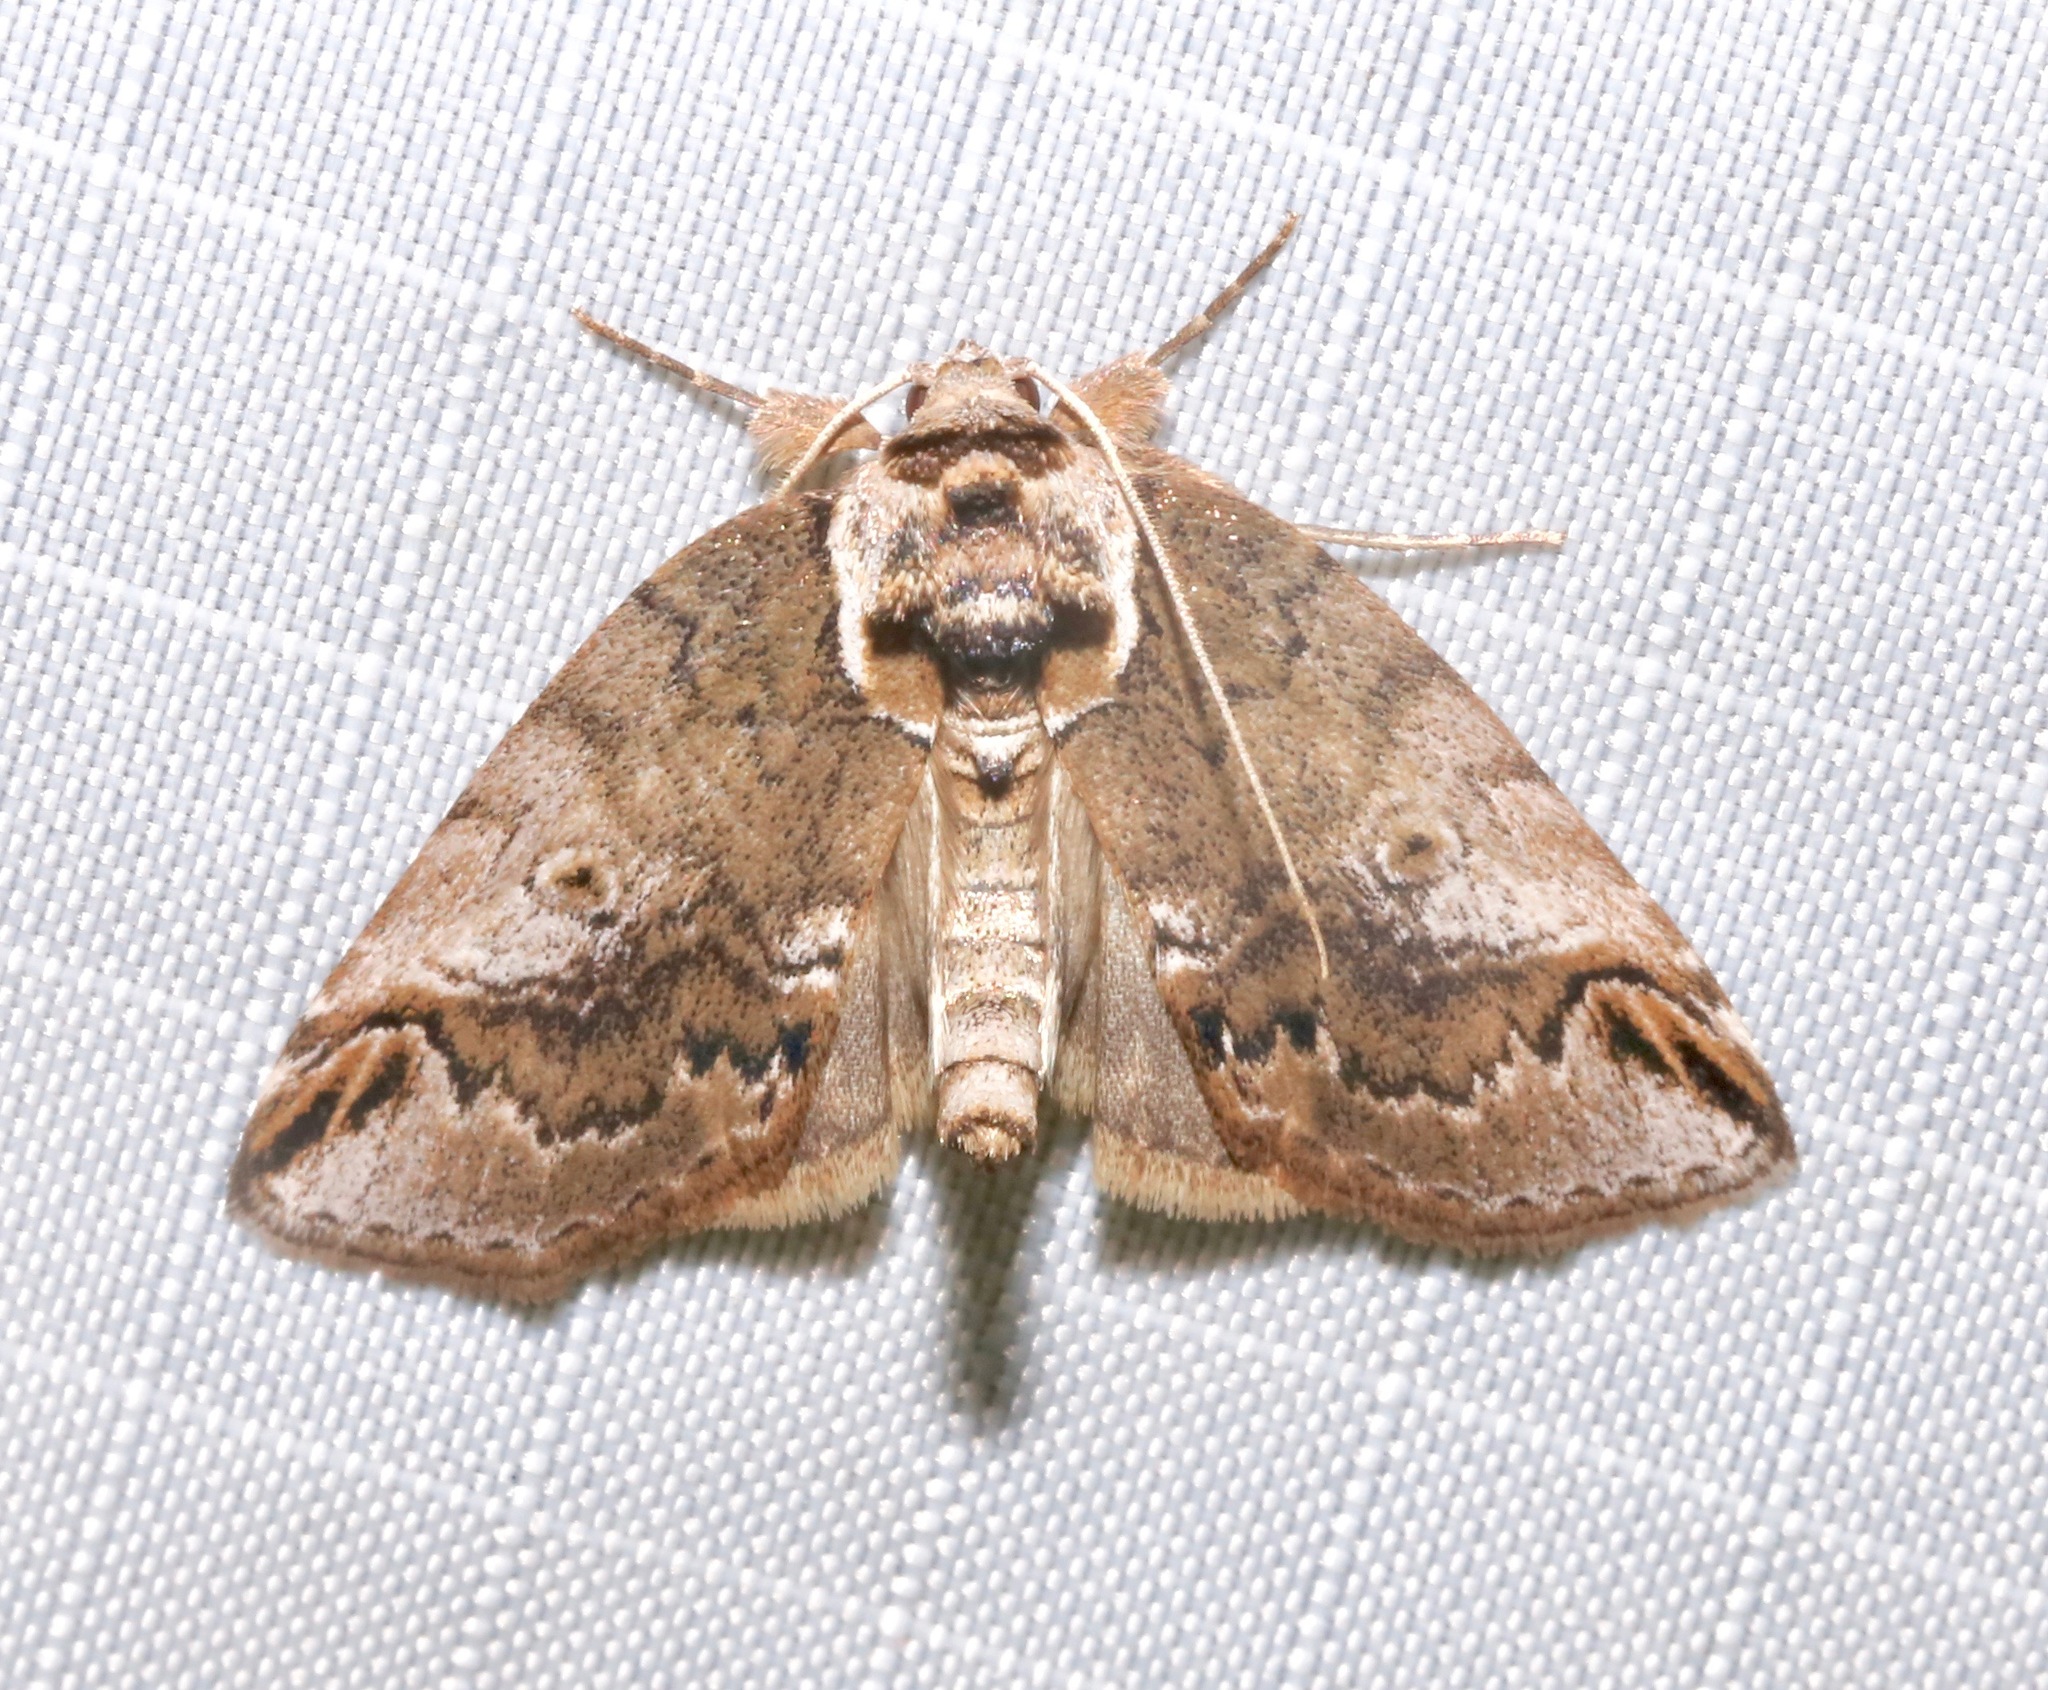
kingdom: Animalia
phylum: Arthropoda
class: Insecta
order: Lepidoptera
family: Nolidae
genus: Baileya
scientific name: Baileya ophthalmica
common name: Eyed baileya moth
